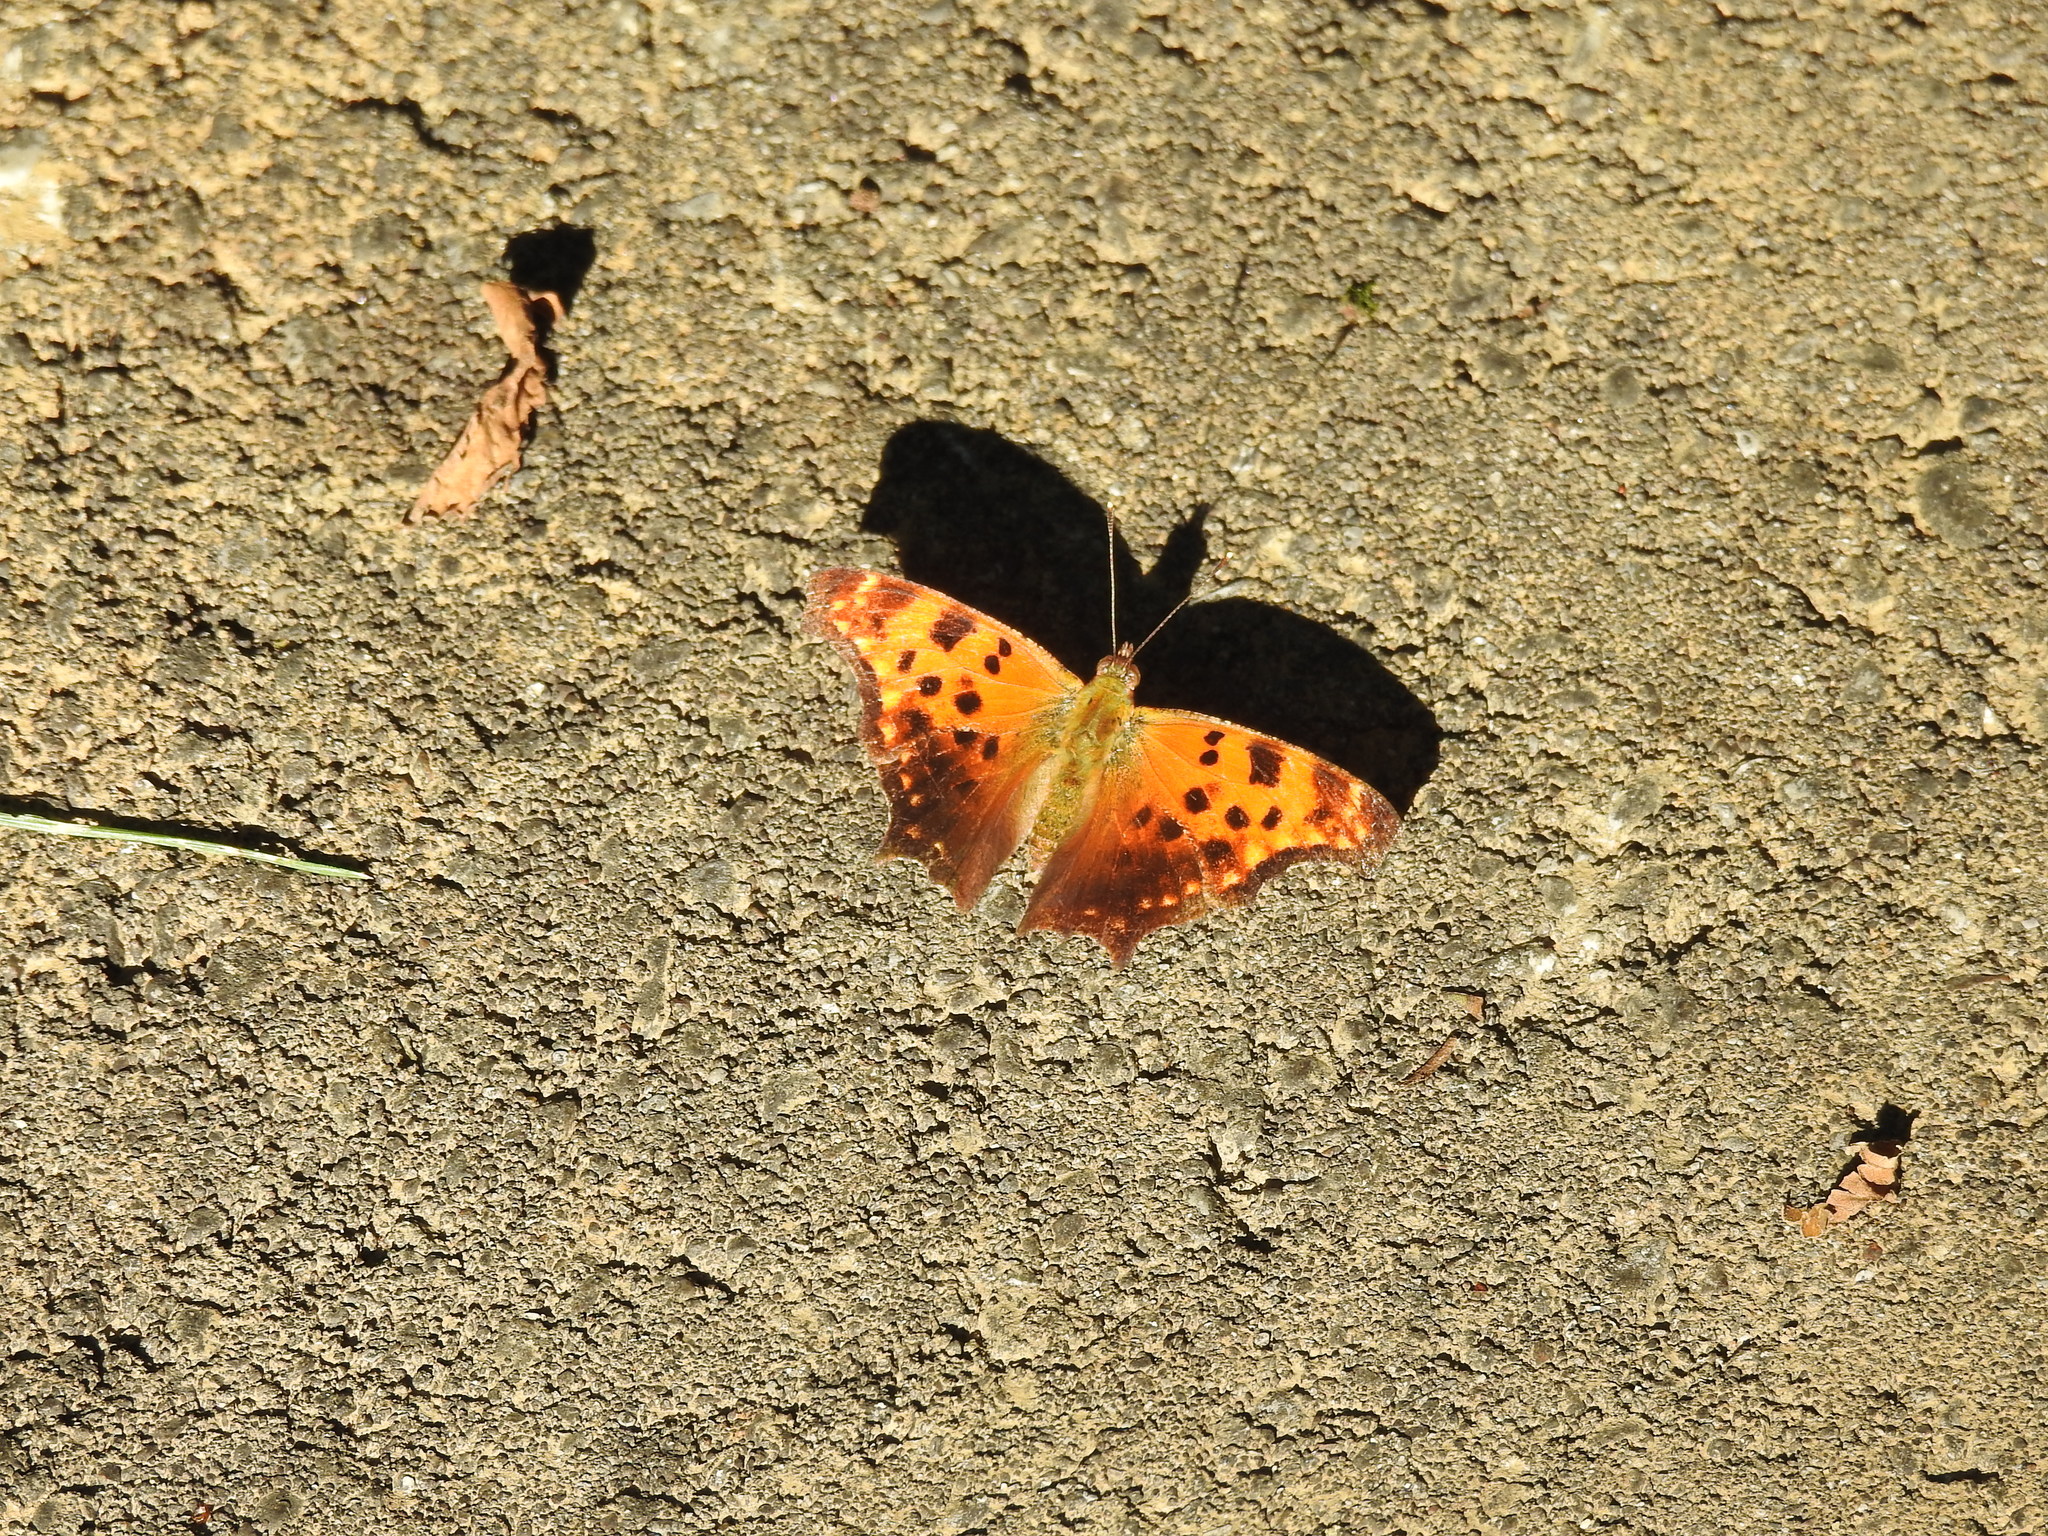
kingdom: Animalia
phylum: Arthropoda
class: Insecta
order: Lepidoptera
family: Nymphalidae
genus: Polygonia
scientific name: Polygonia comma
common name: Eastern comma
